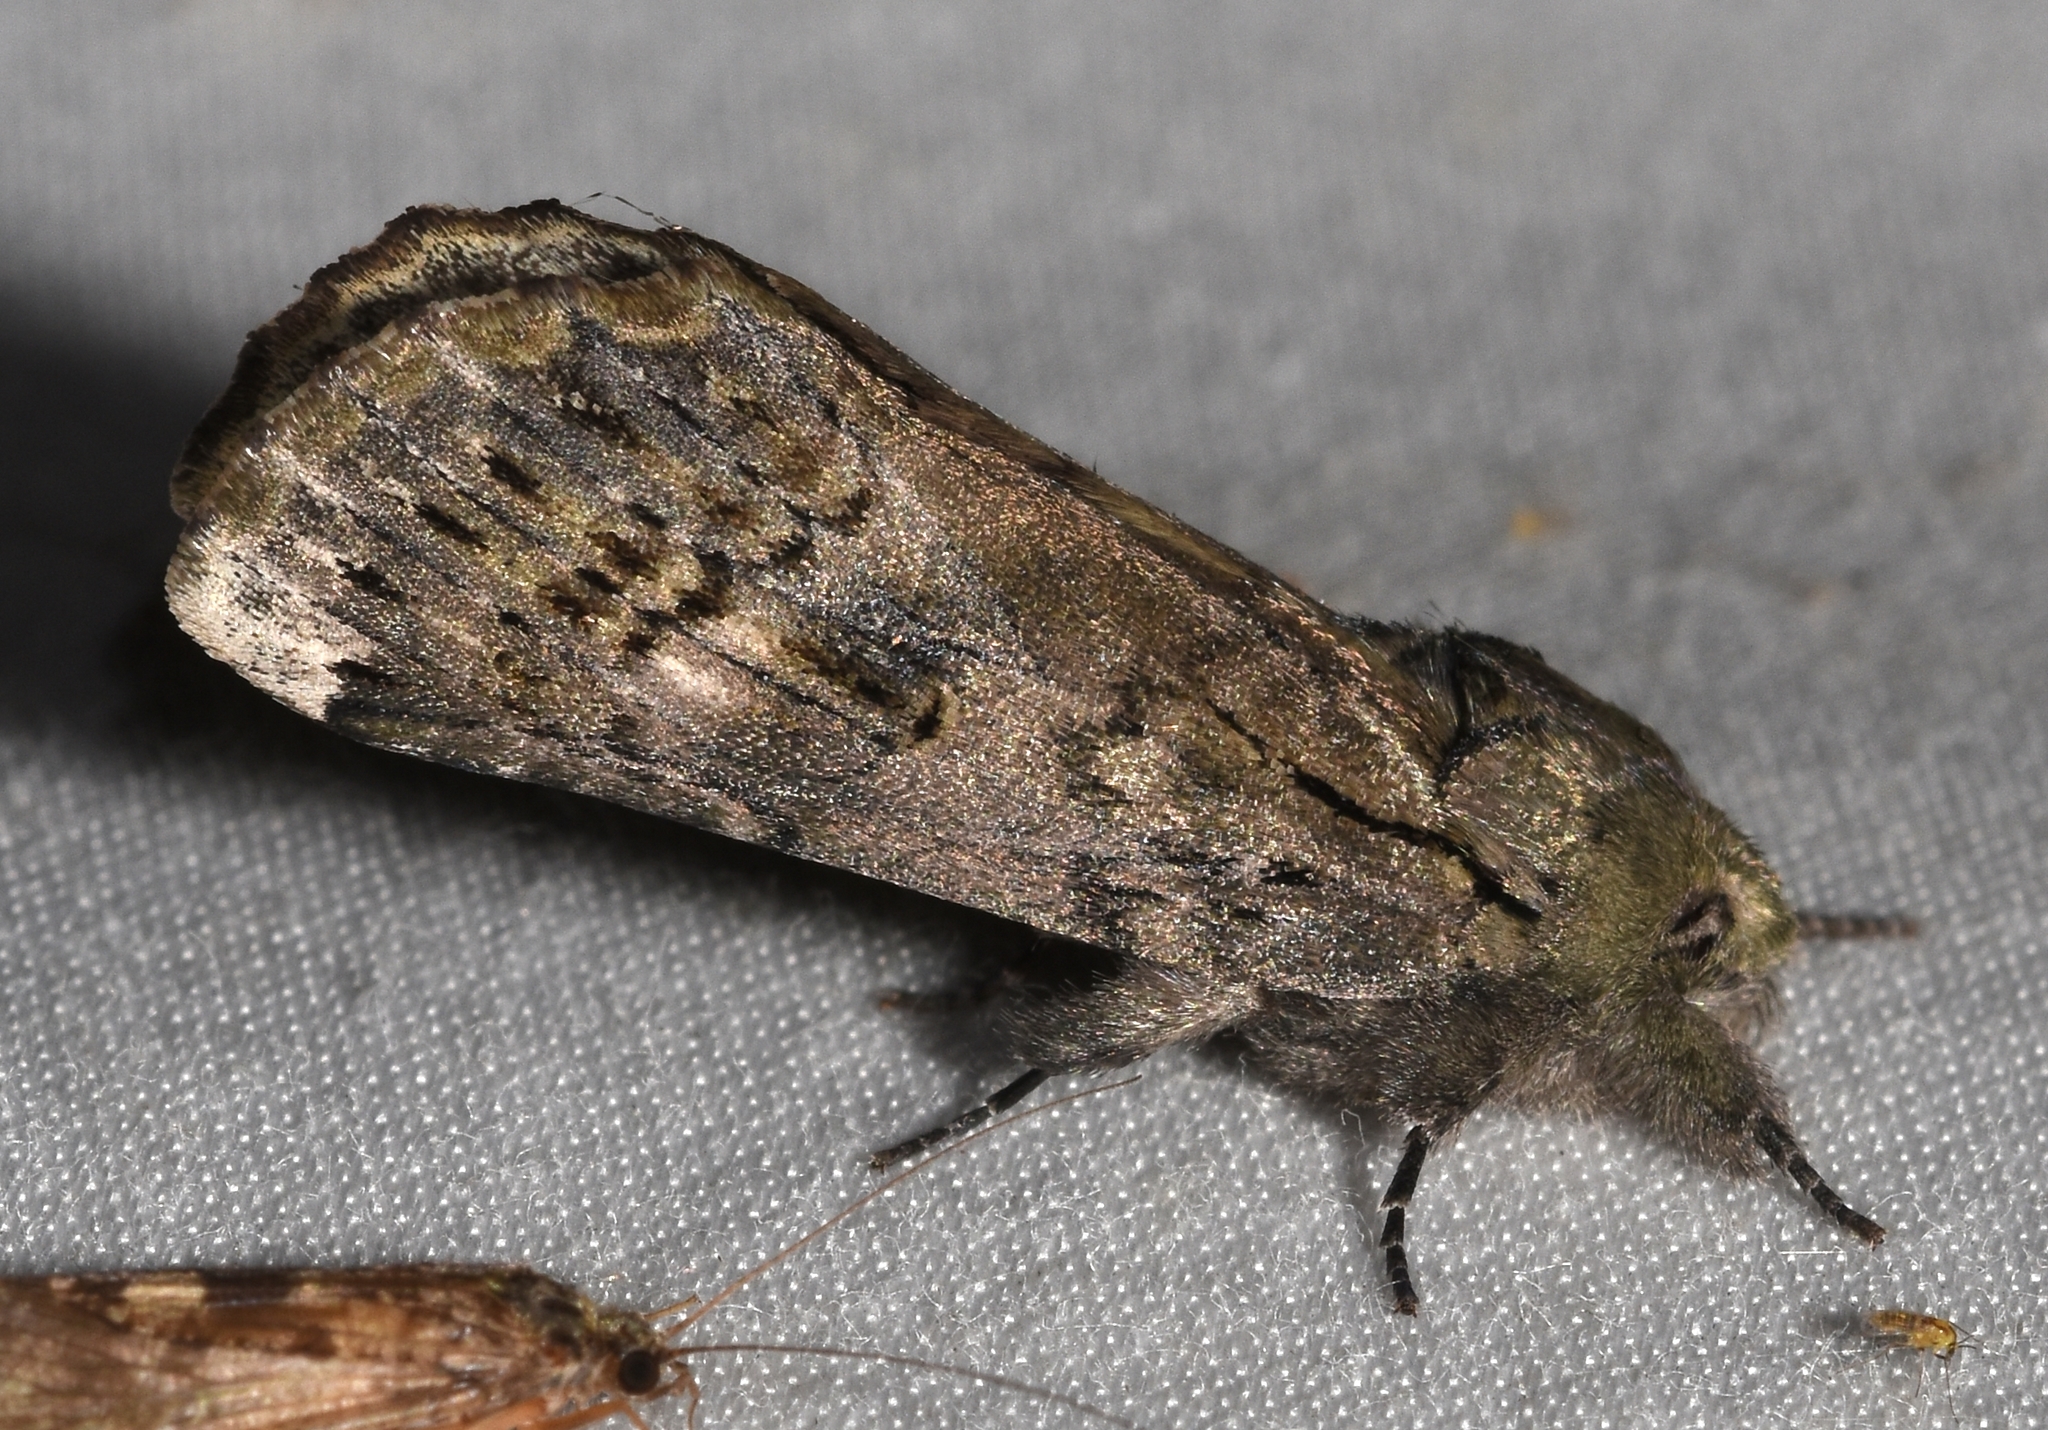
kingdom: Animalia
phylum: Arthropoda
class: Insecta
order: Lepidoptera
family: Notodontidae
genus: Schizura
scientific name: Schizura
